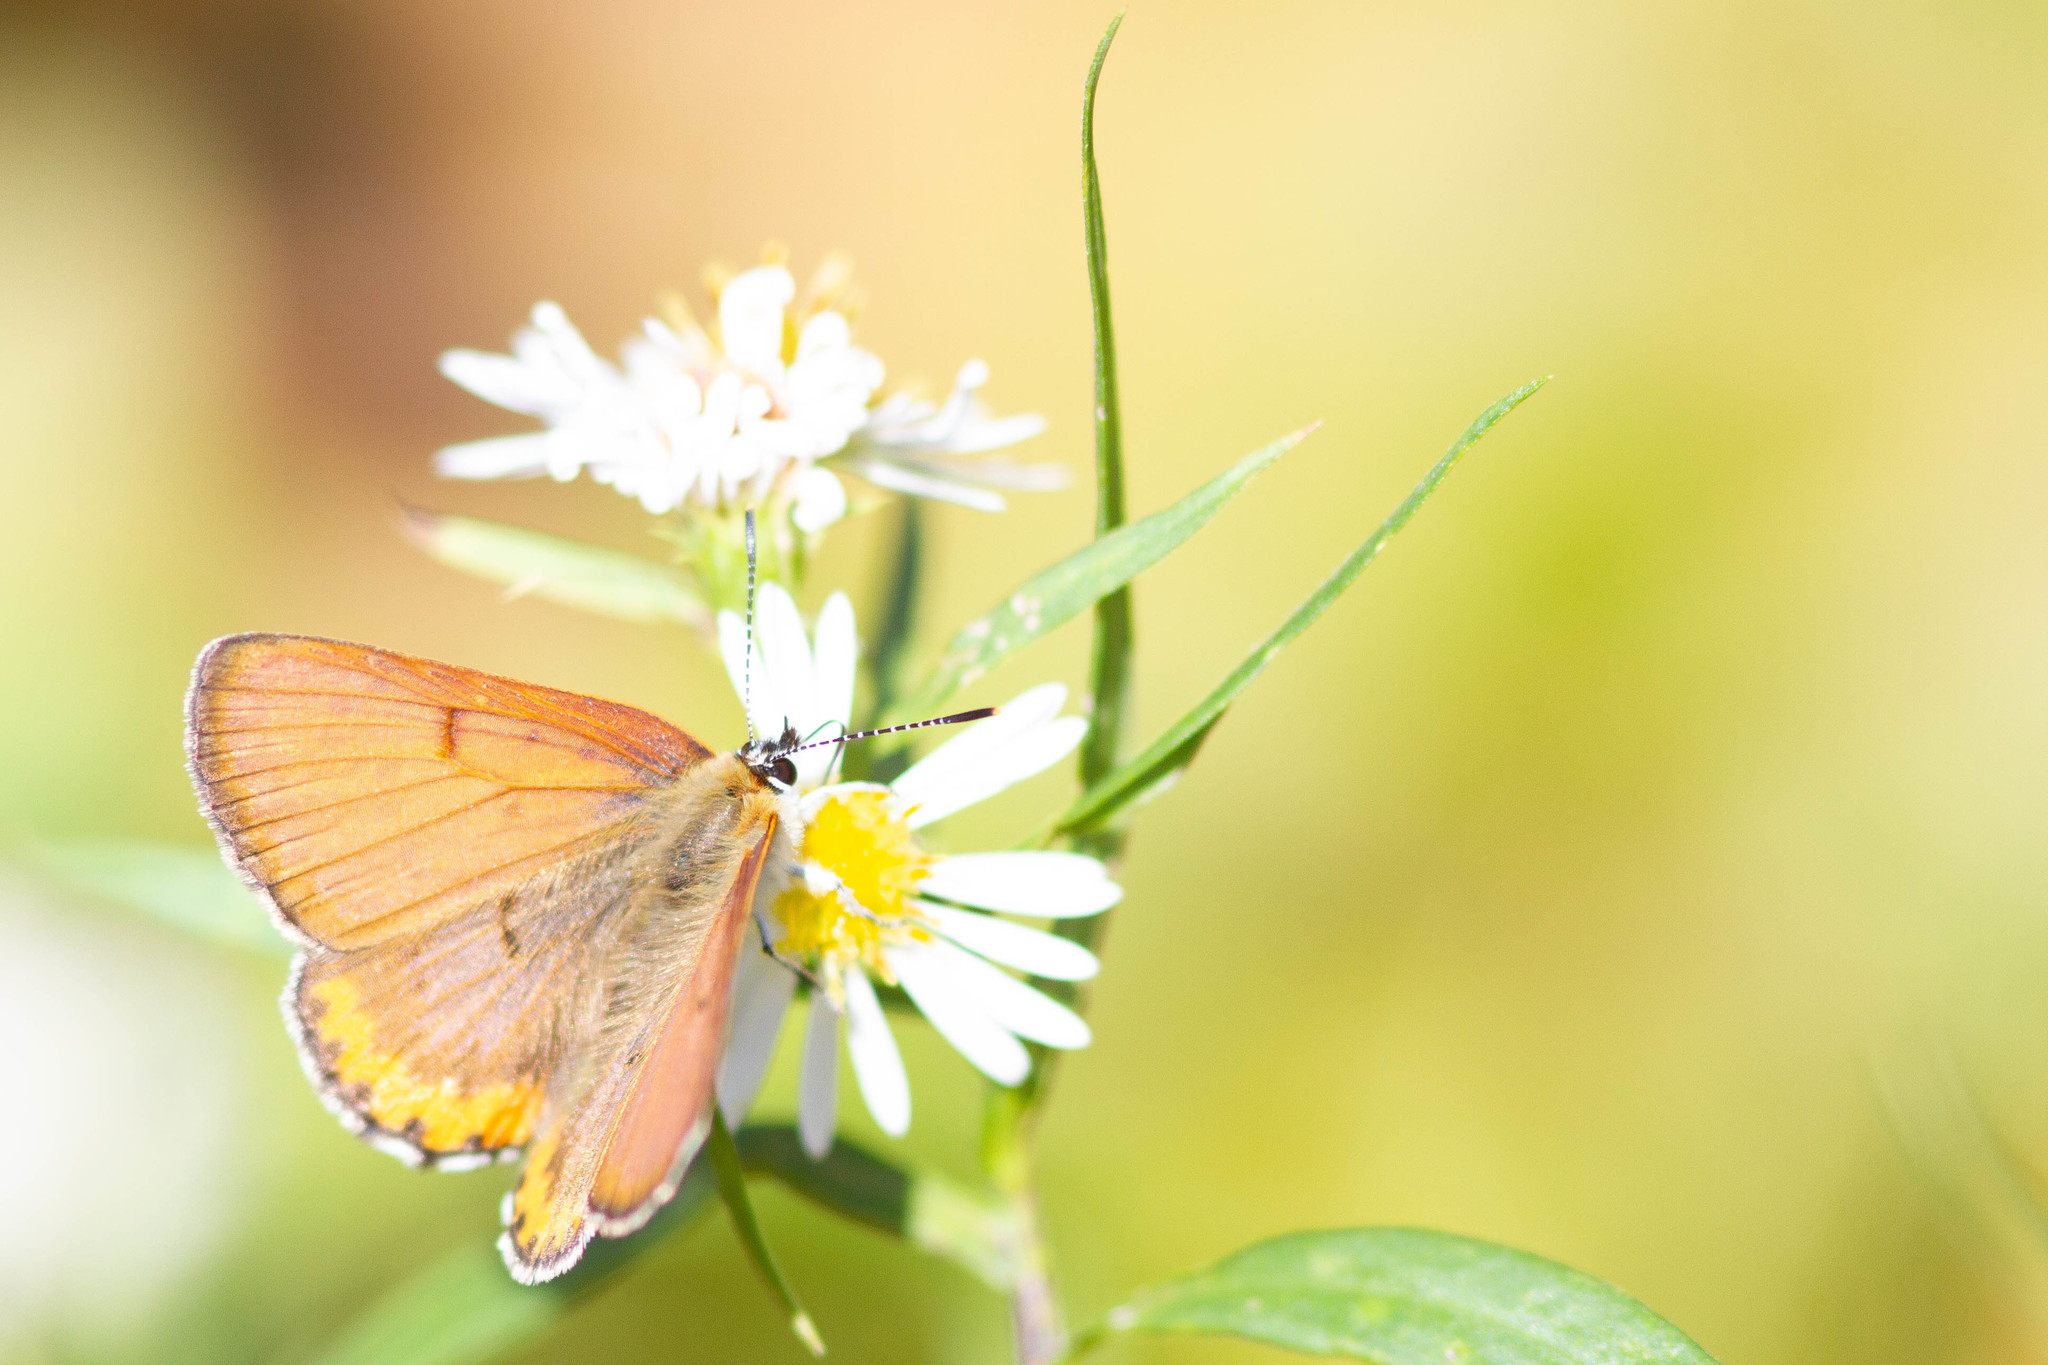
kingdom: Animalia
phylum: Arthropoda
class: Insecta
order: Lepidoptera
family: Lycaenidae
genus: Tharsalea
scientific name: Tharsalea hyllus
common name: Bronze copper
